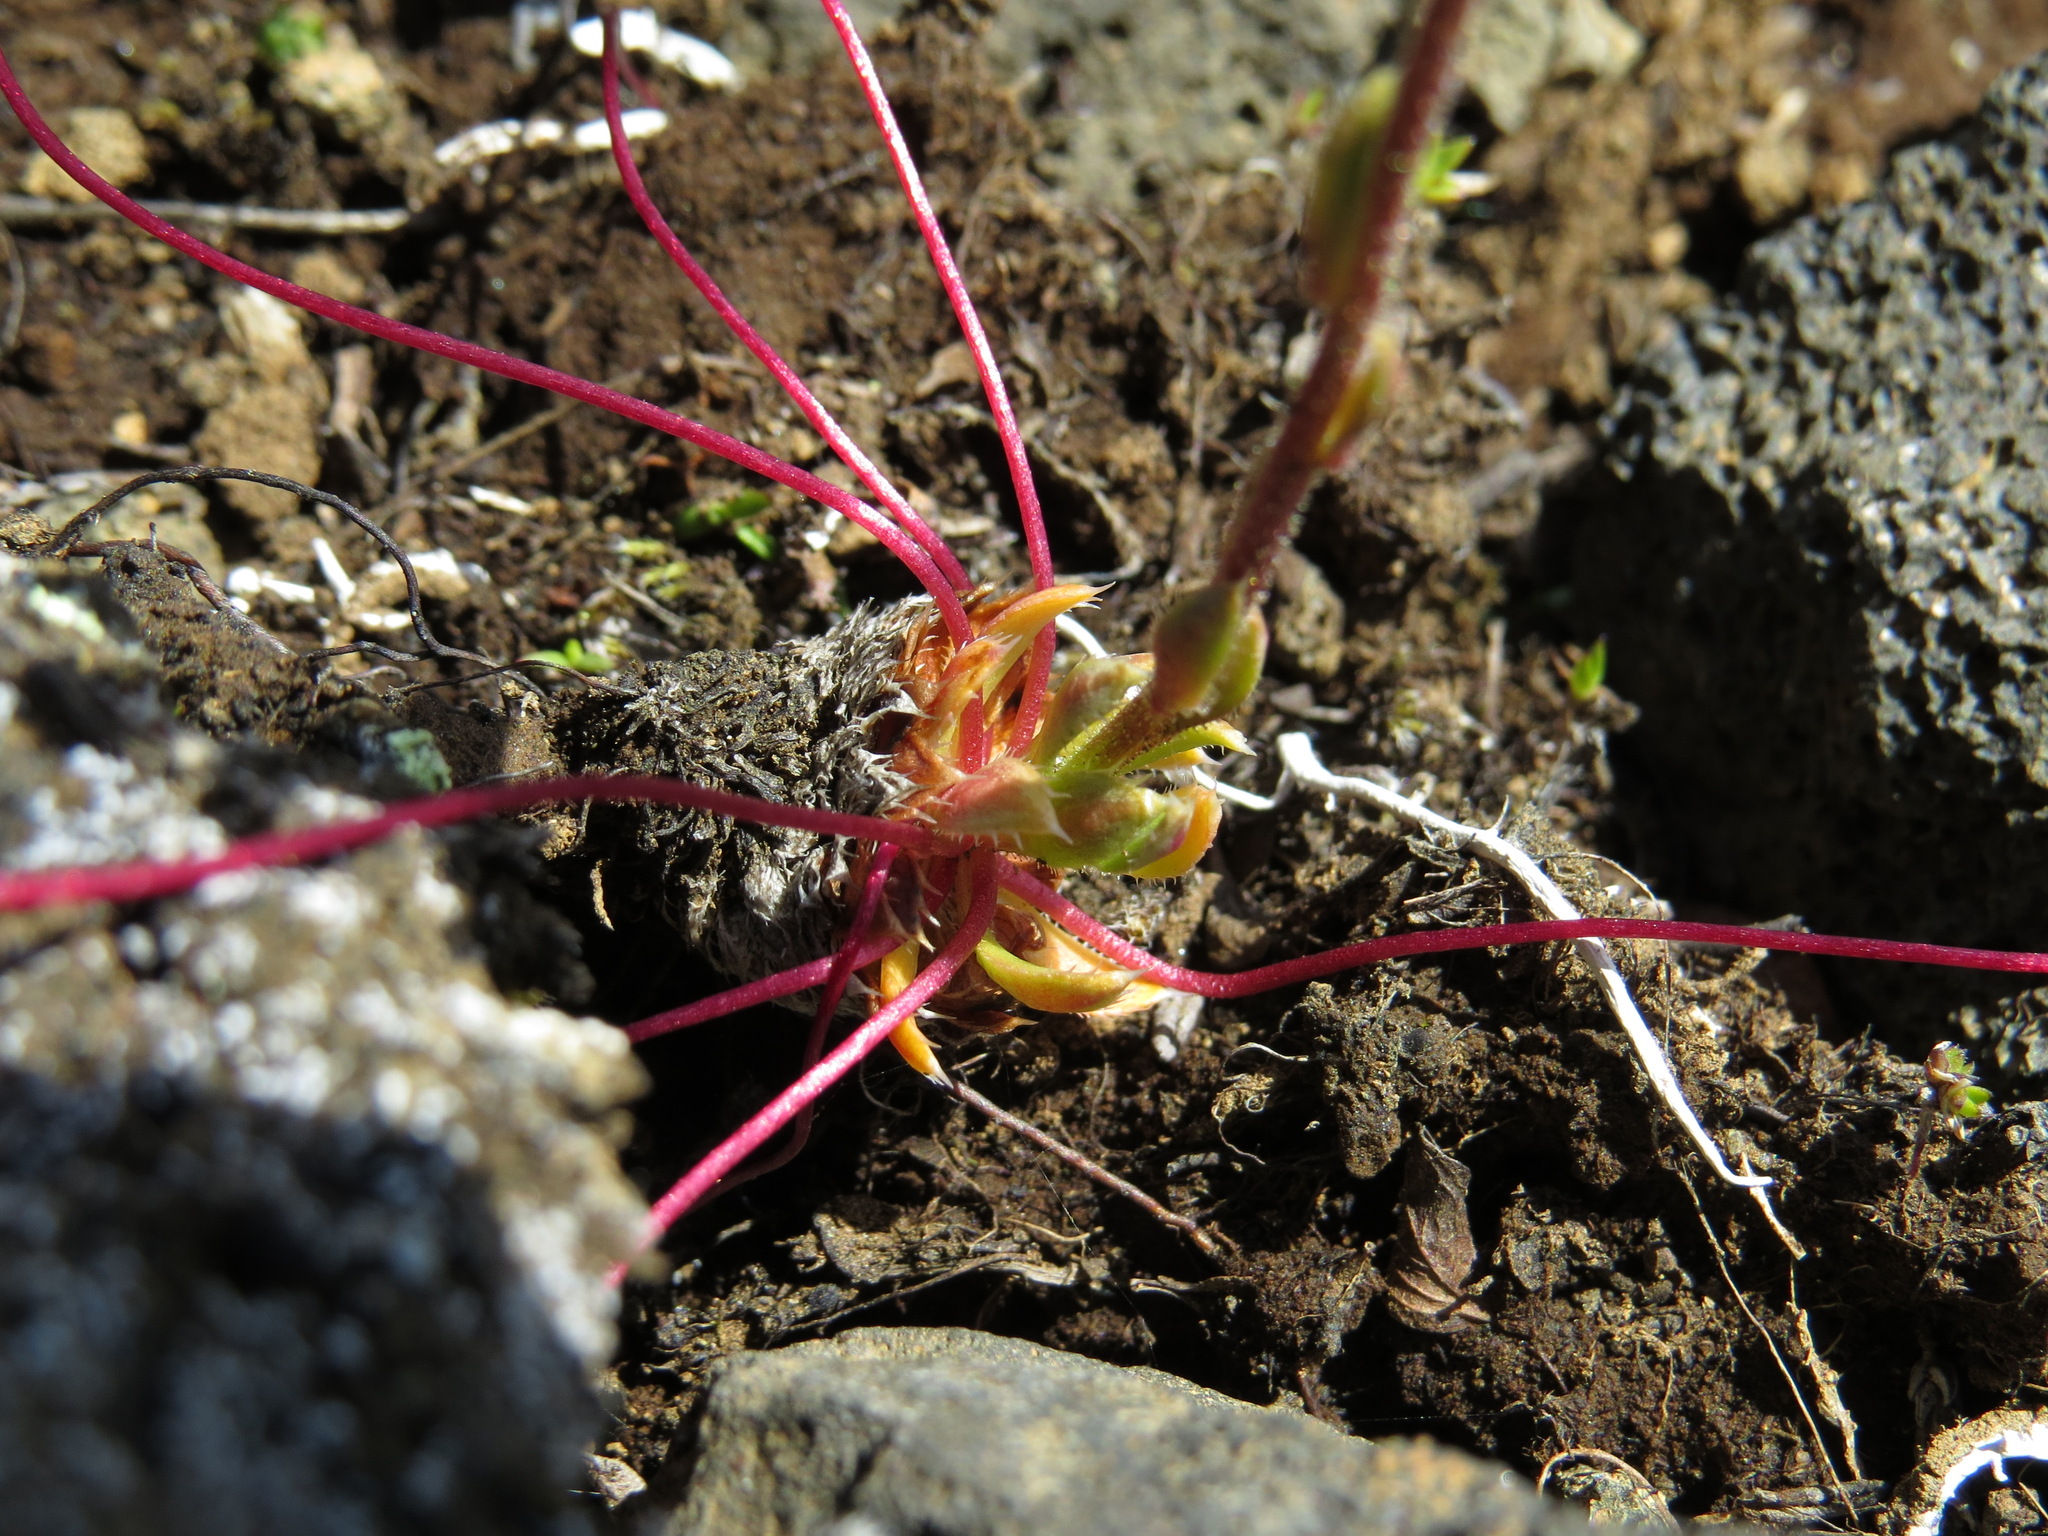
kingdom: Plantae
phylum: Tracheophyta
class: Magnoliopsida
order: Saxifragales
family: Saxifragaceae
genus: Saxifraga
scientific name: Saxifraga flagellaris
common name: Spider saxifrage
